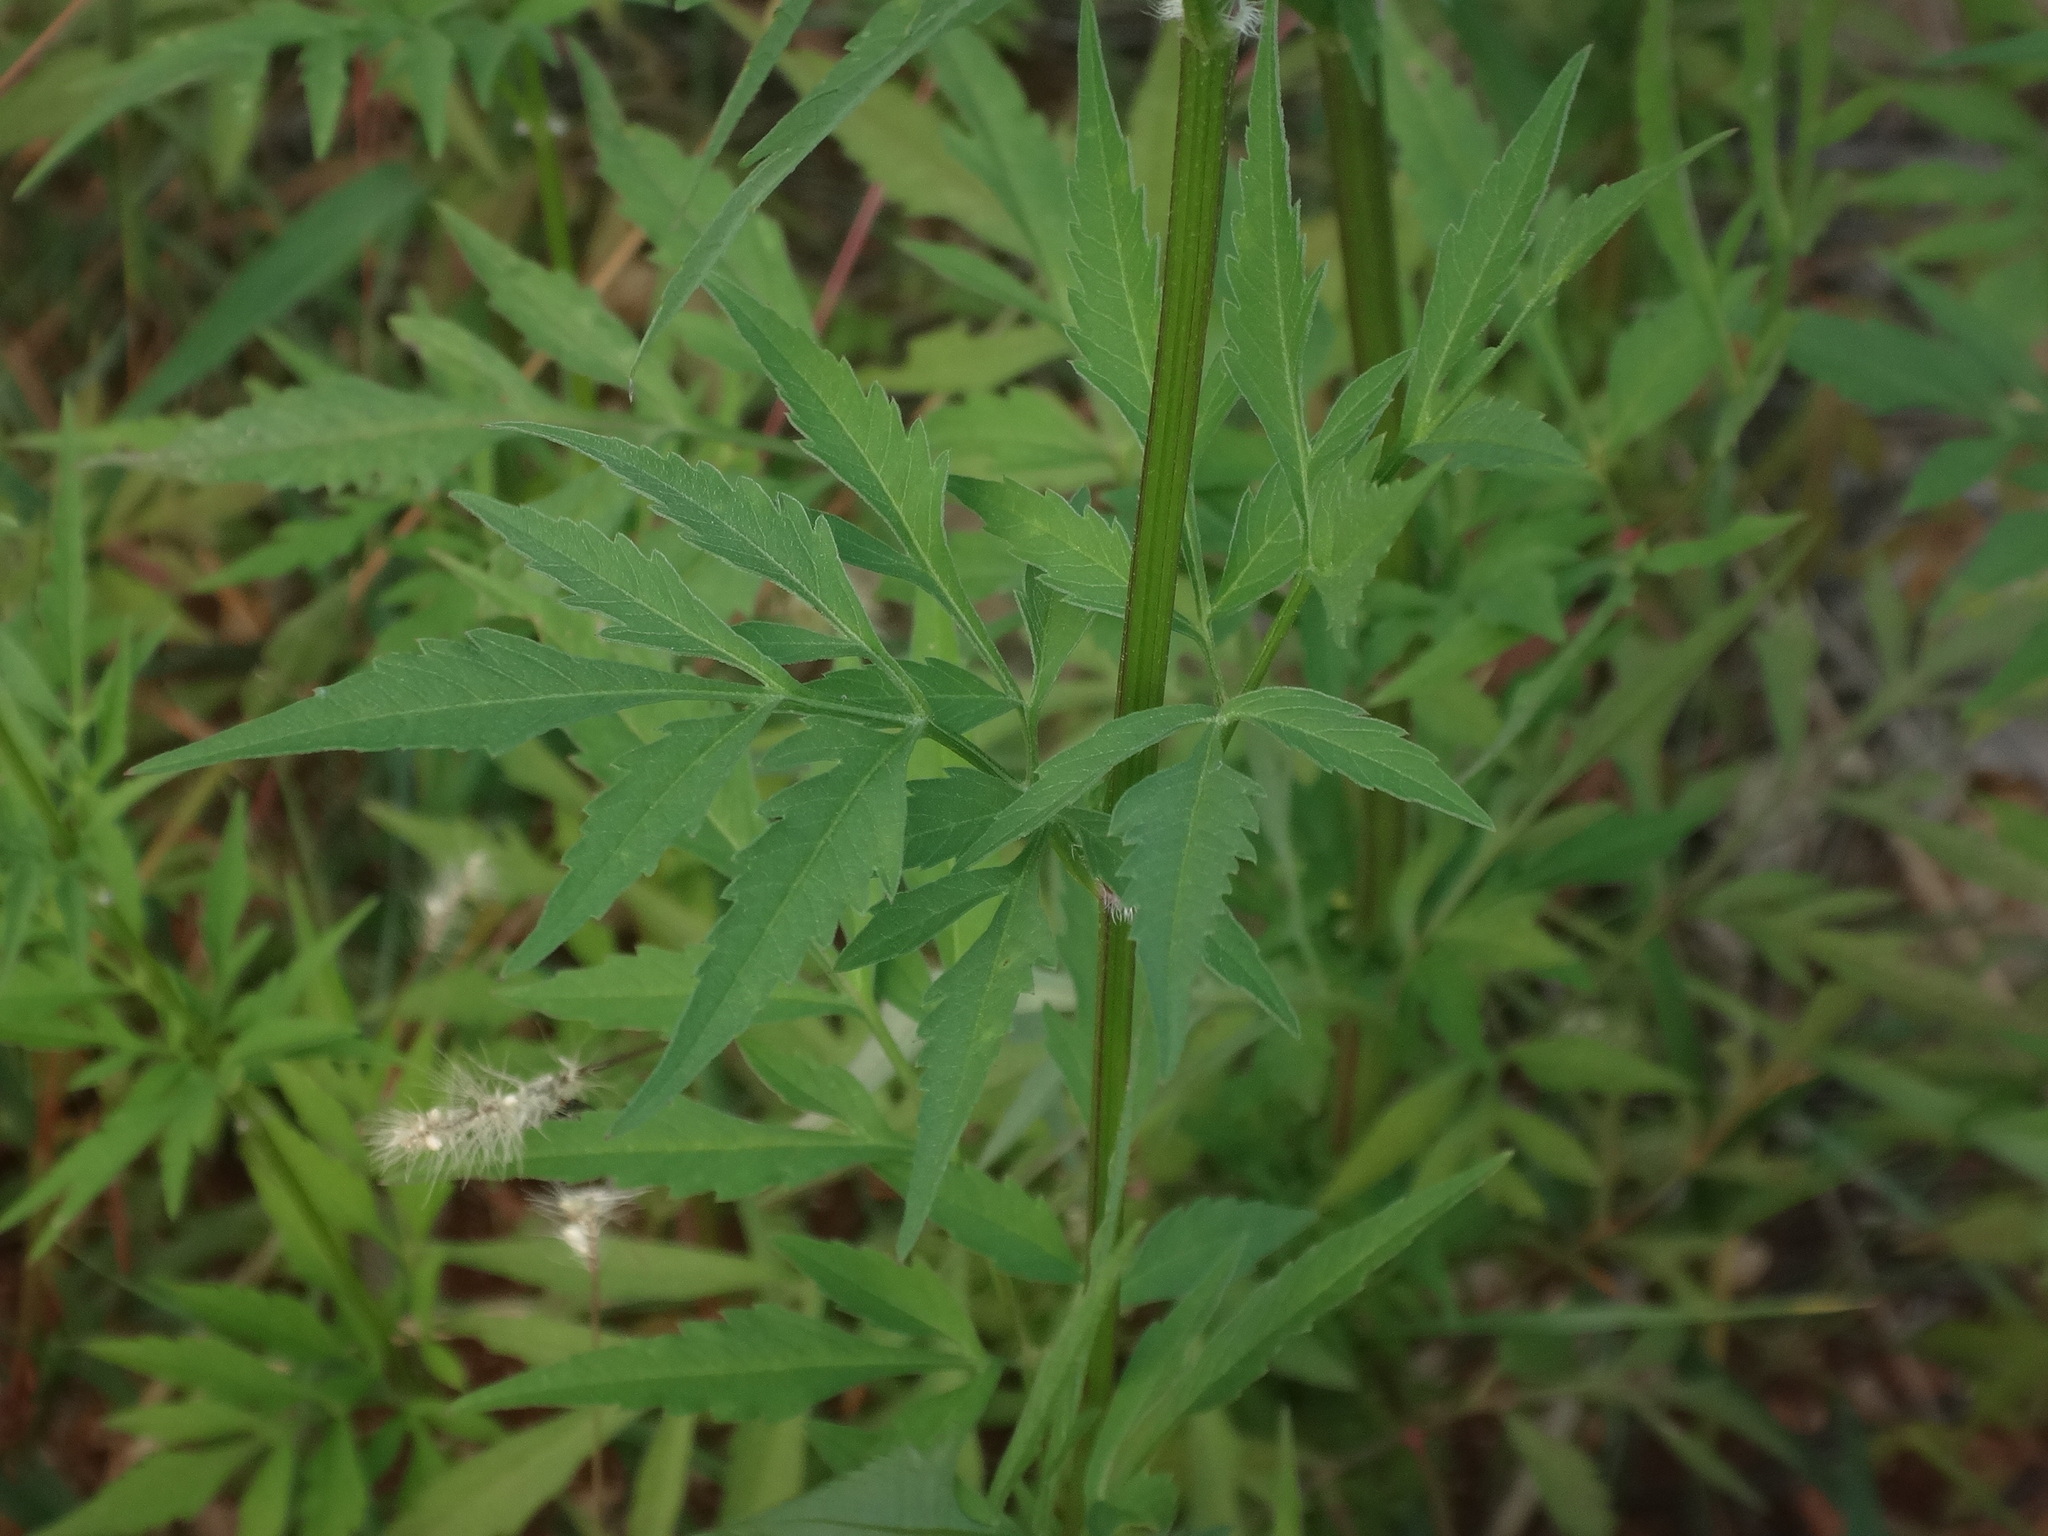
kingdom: Plantae
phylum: Tracheophyta
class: Magnoliopsida
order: Asterales
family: Asteraceae
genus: Bidens
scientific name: Bidens subalternans
